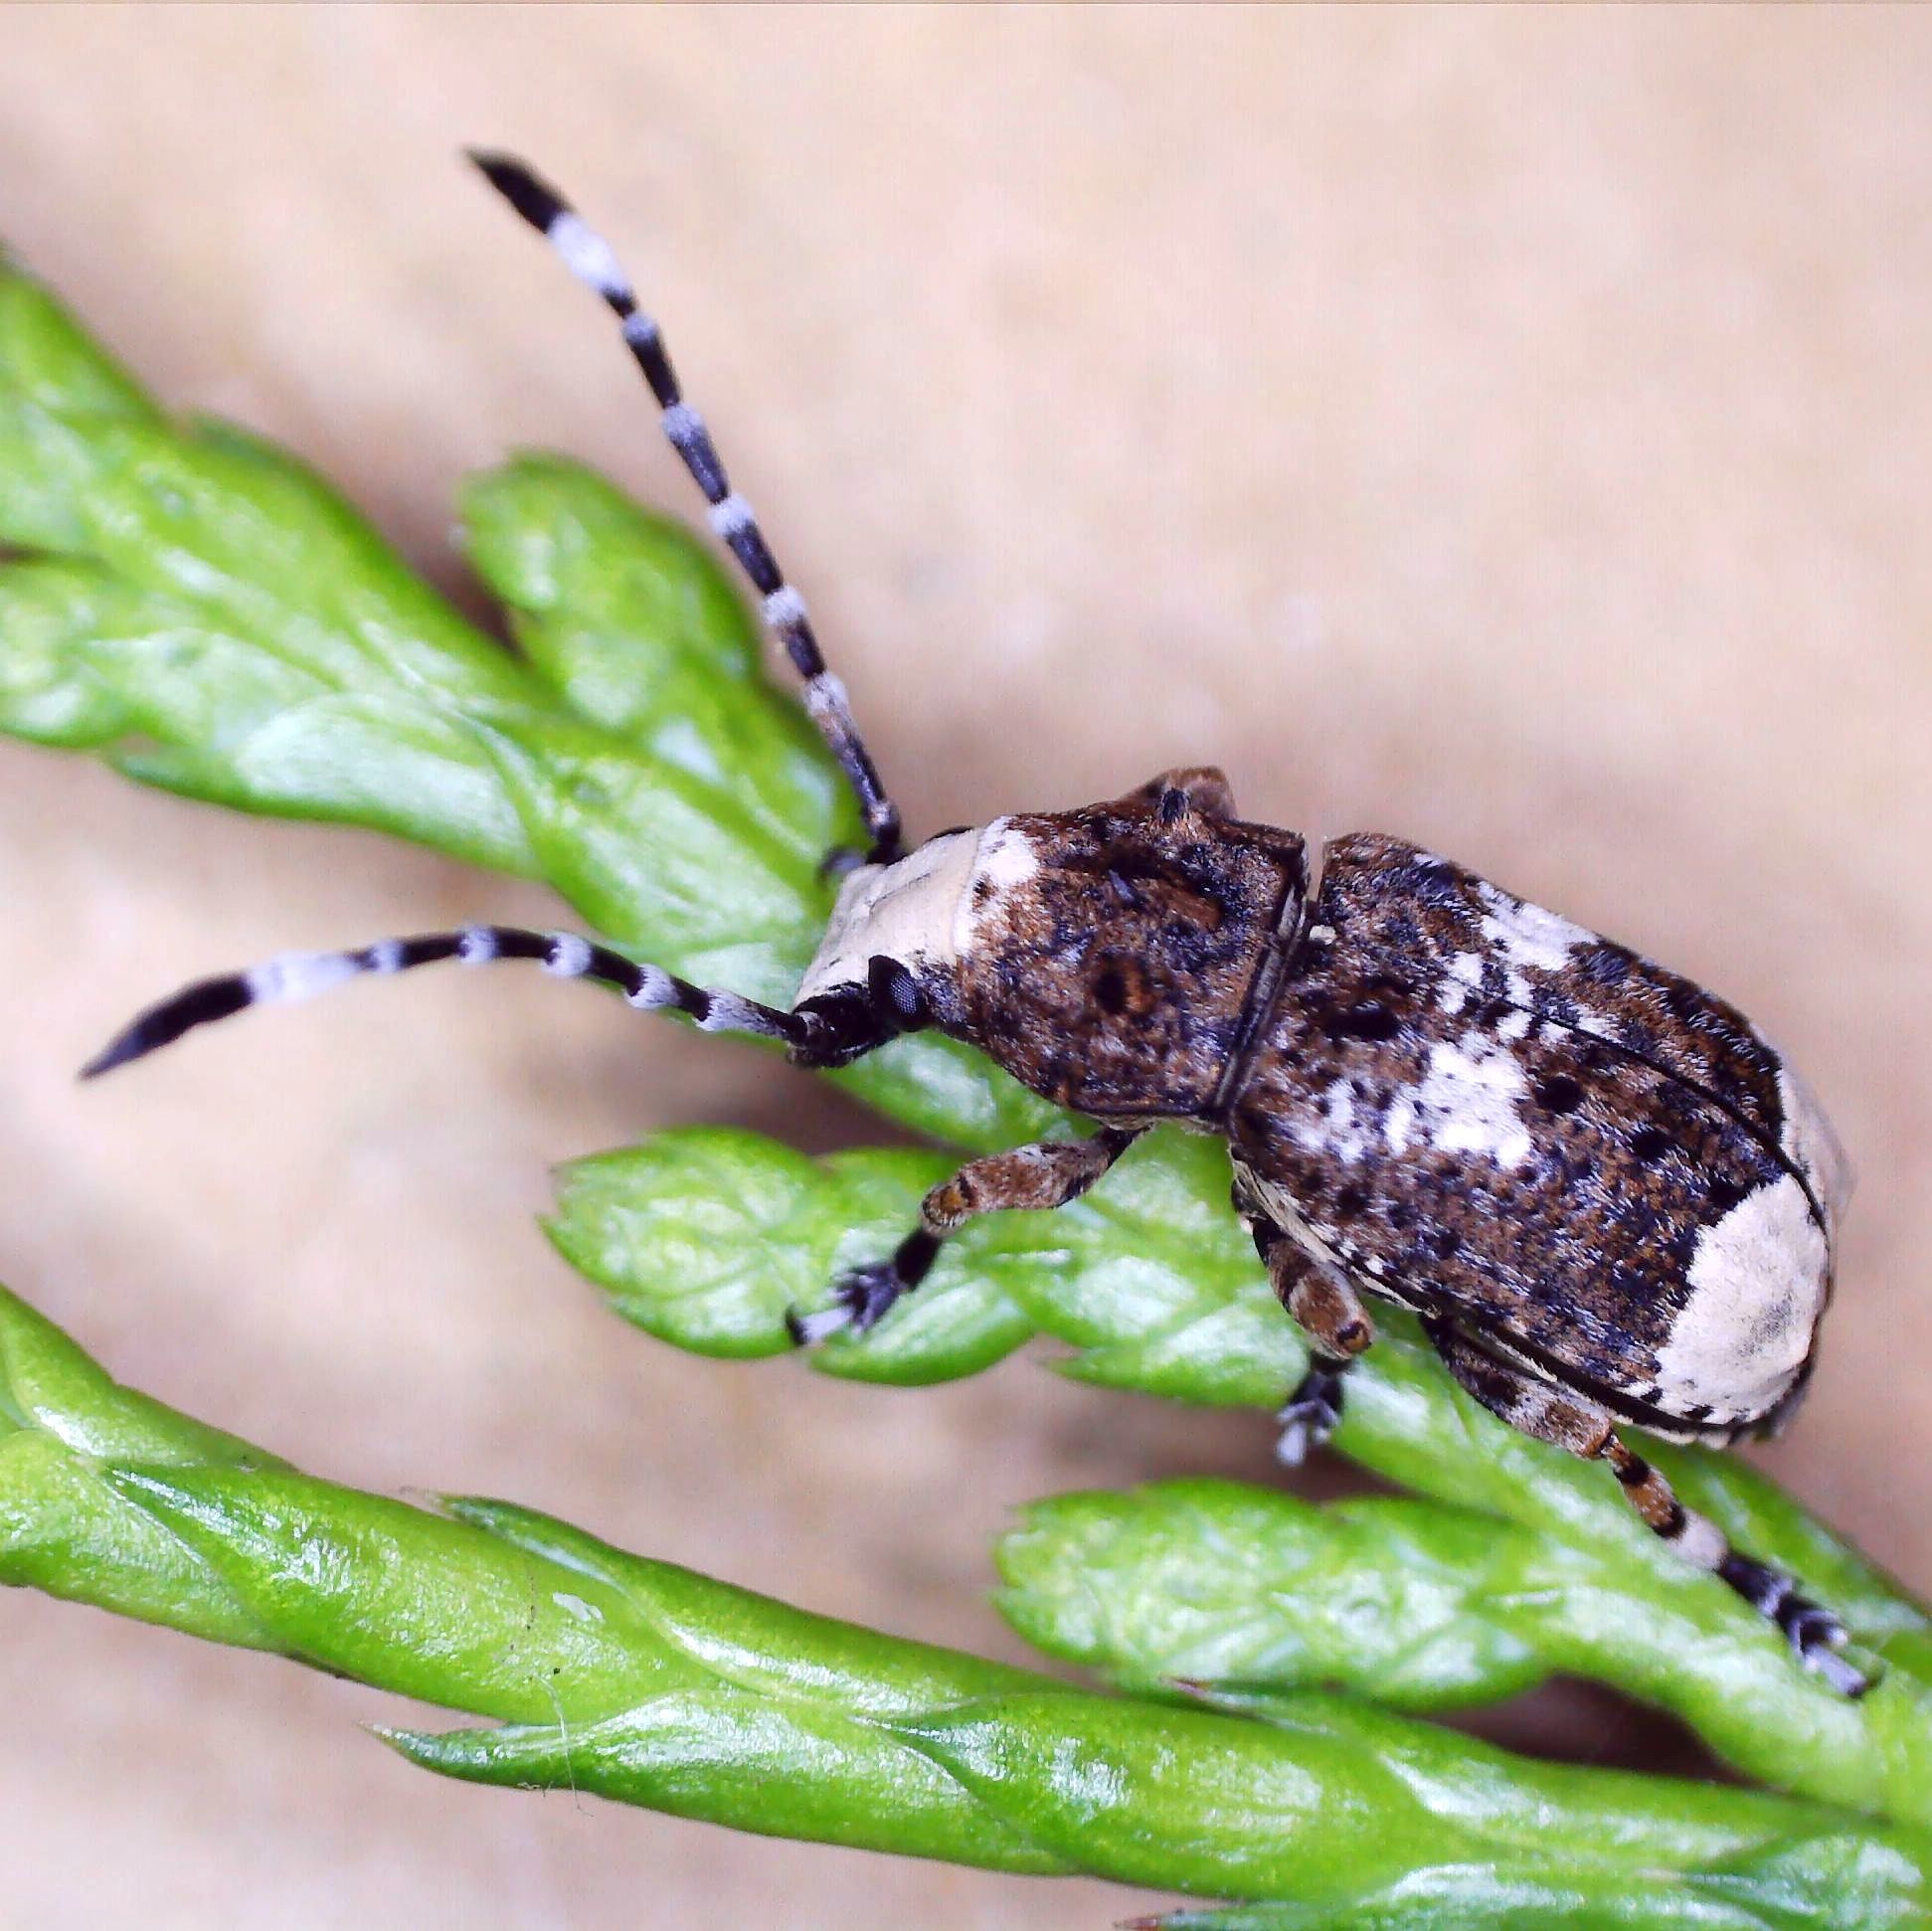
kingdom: Animalia
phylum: Arthropoda
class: Insecta
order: Coleoptera
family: Anthribidae
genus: Platystomos
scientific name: Platystomos albinus
